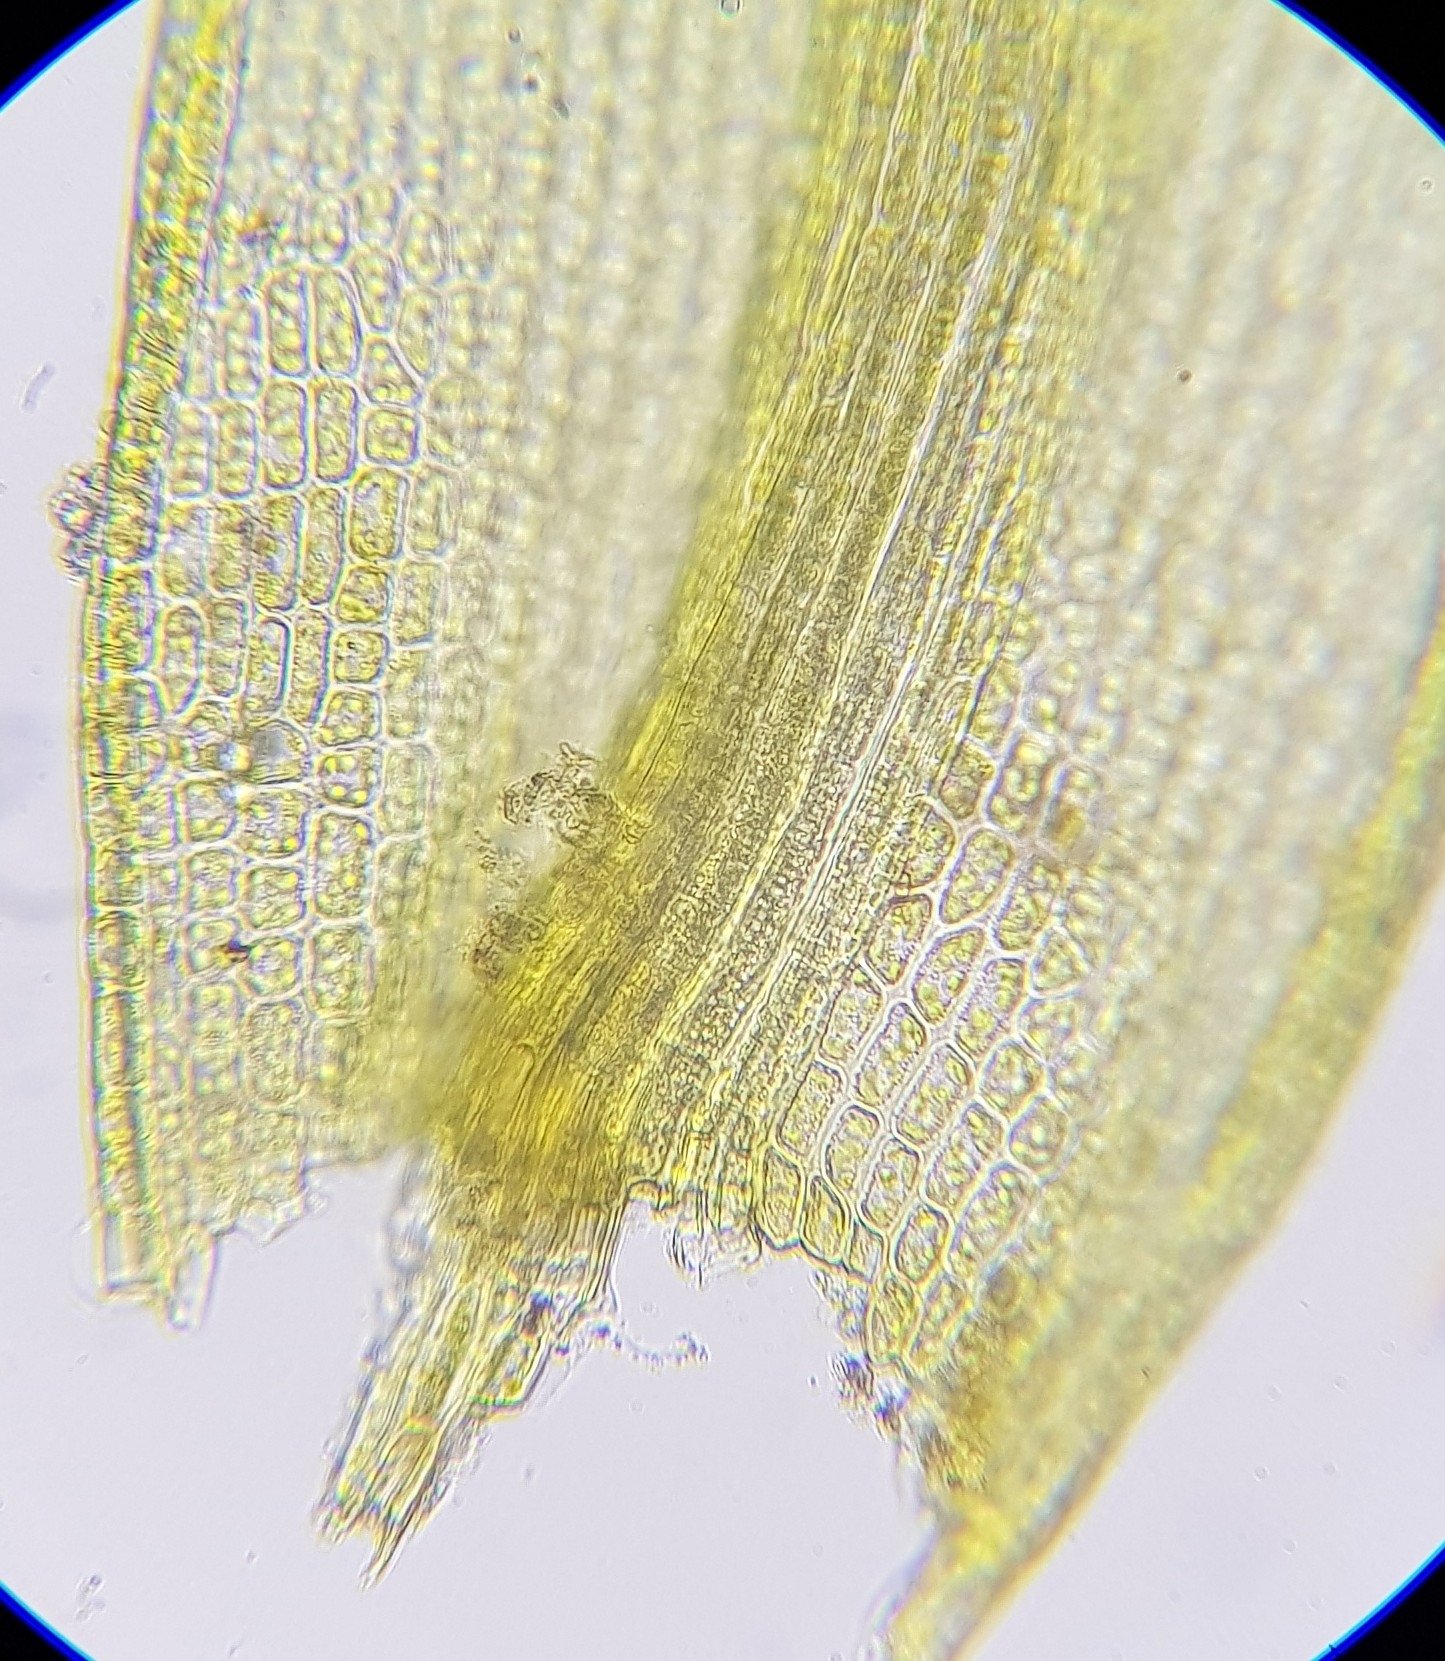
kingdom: Plantae
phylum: Bryophyta
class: Bryopsida
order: Dicranales
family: Ditrichaceae
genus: Ceratodon
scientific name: Ceratodon purpureus
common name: Redshank
